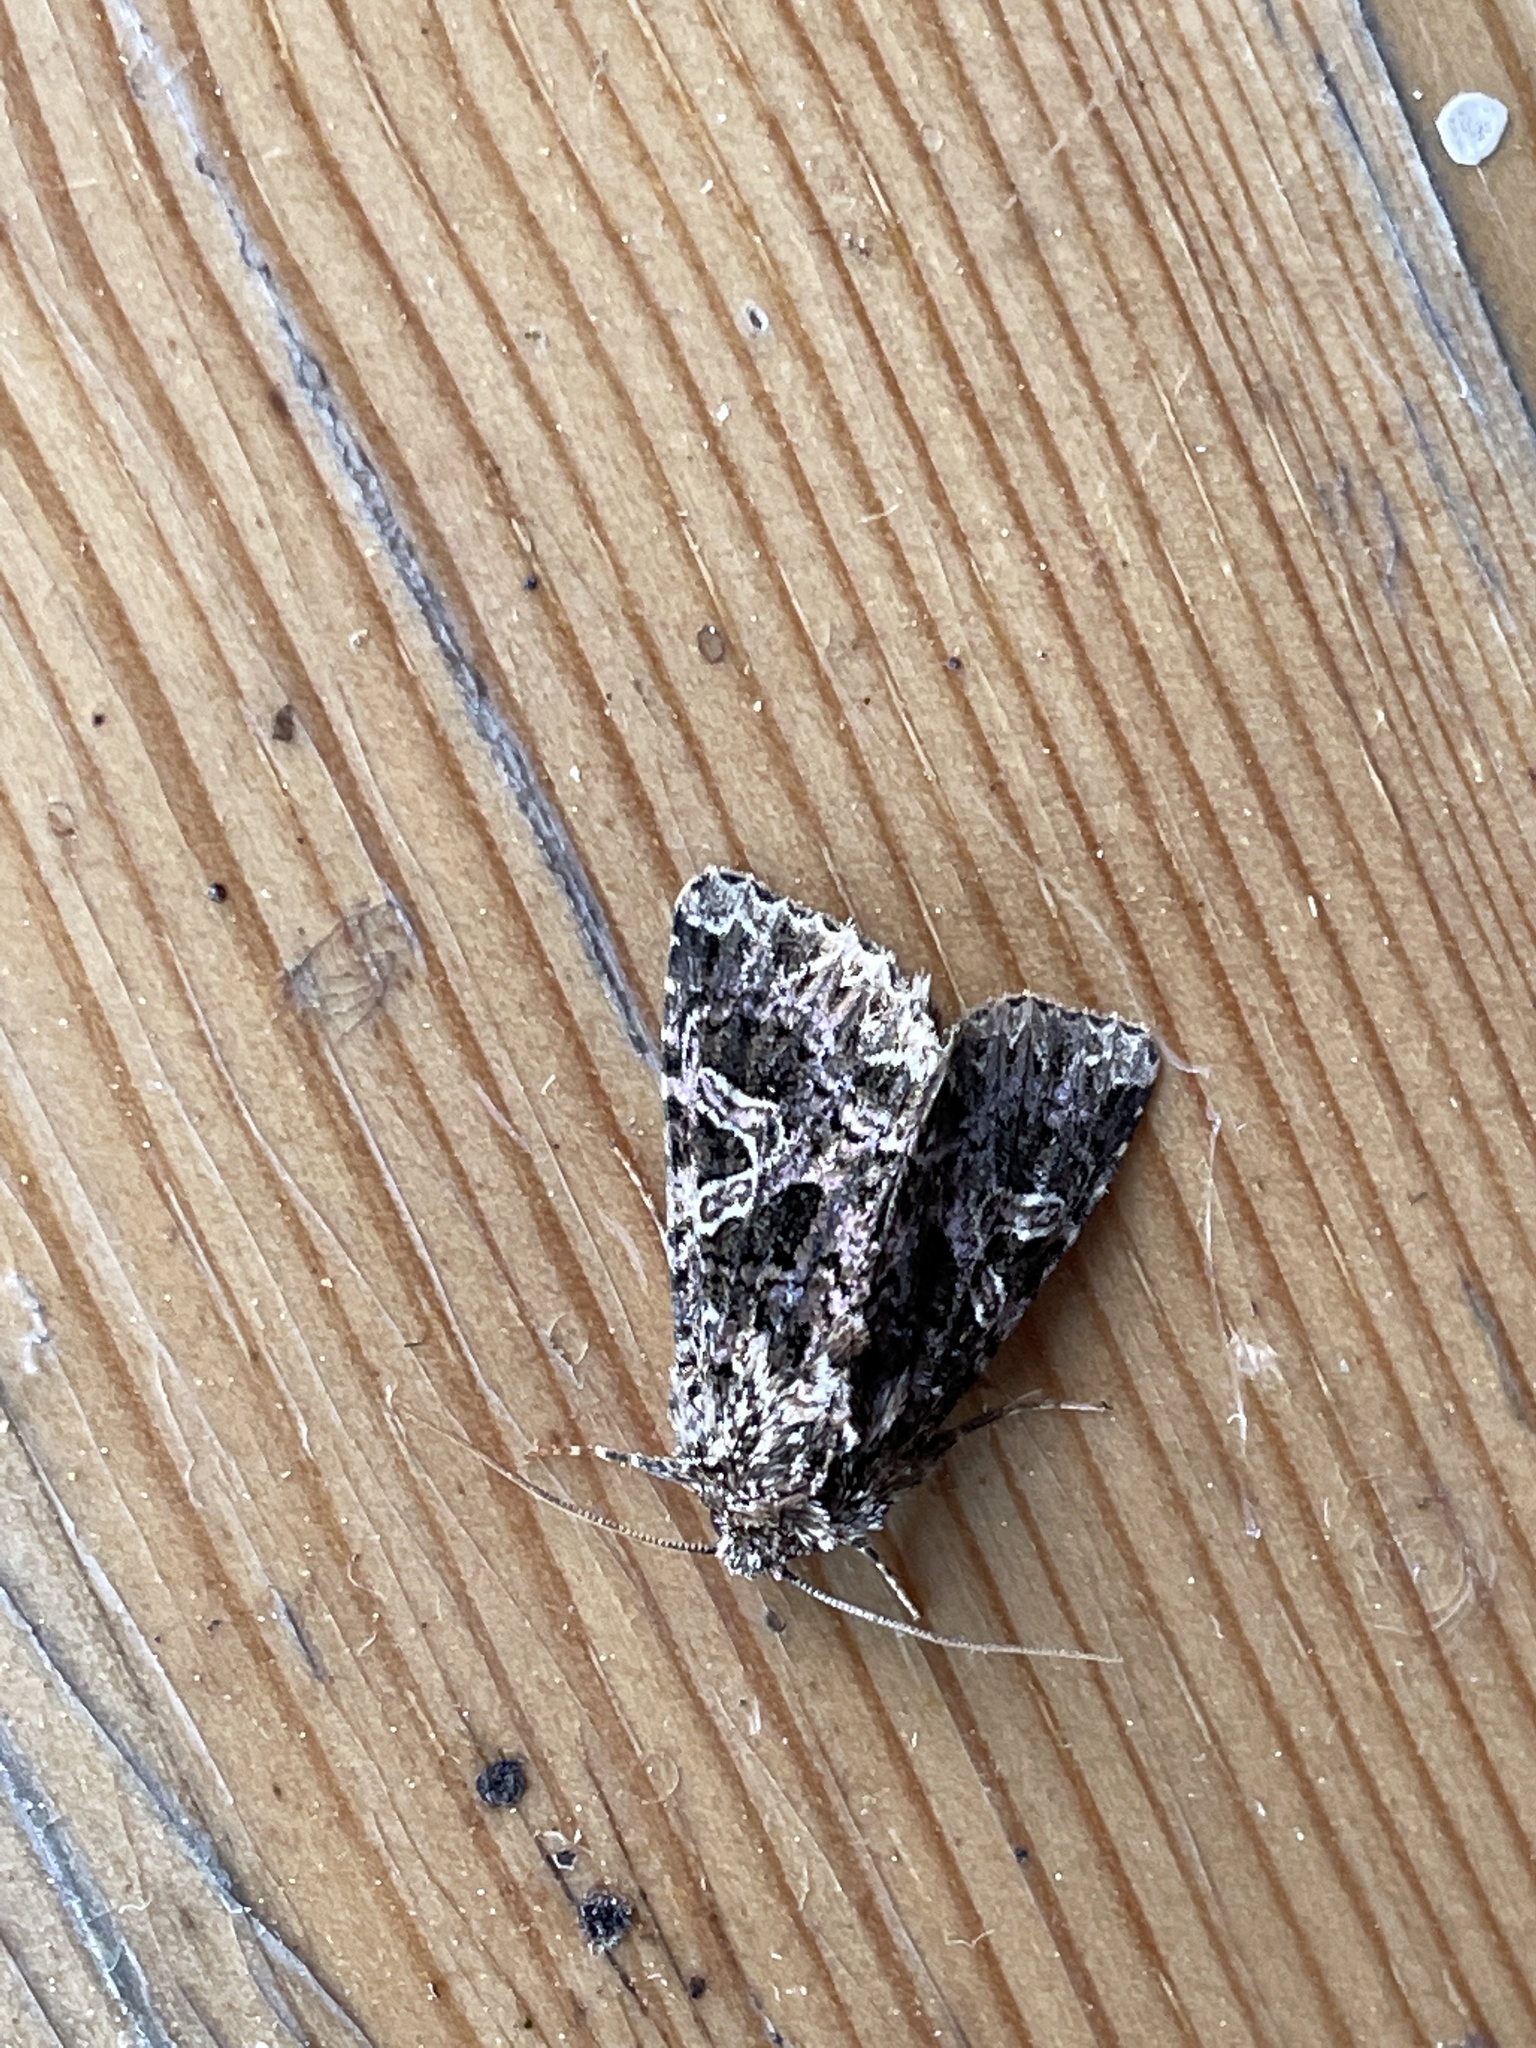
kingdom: Animalia
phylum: Arthropoda
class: Insecta
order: Lepidoptera
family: Noctuidae
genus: Sideridis
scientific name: Sideridis rivularis
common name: Campion
